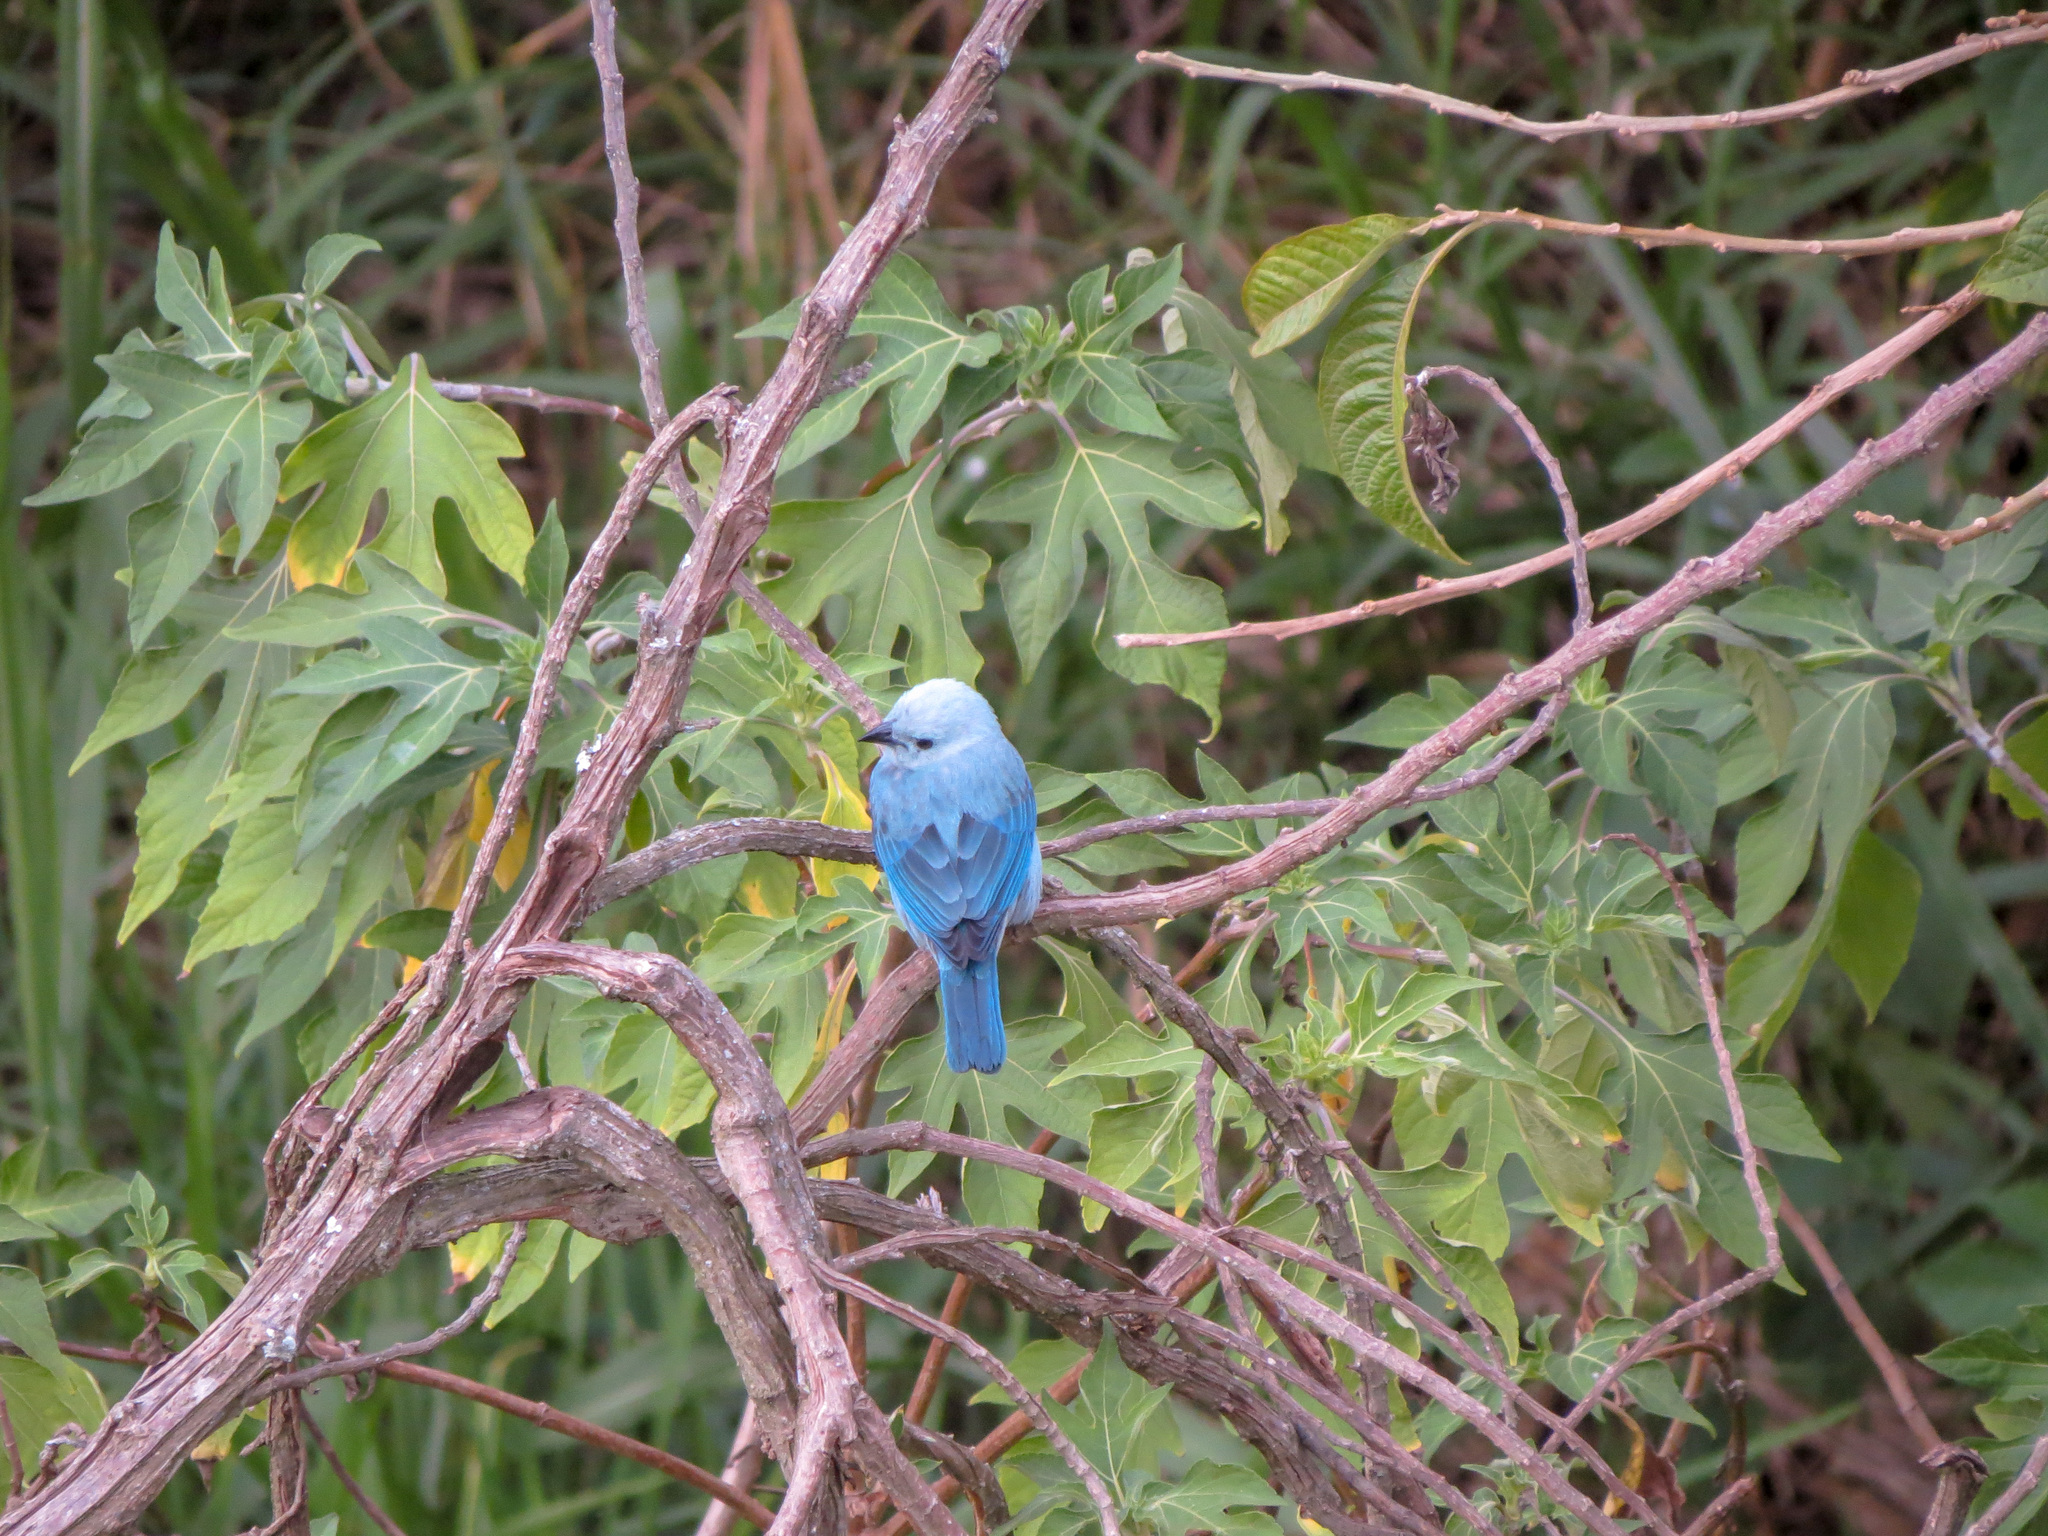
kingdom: Animalia
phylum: Chordata
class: Aves
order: Passeriformes
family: Thraupidae
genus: Thraupis
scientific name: Thraupis episcopus
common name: Blue-grey tanager
